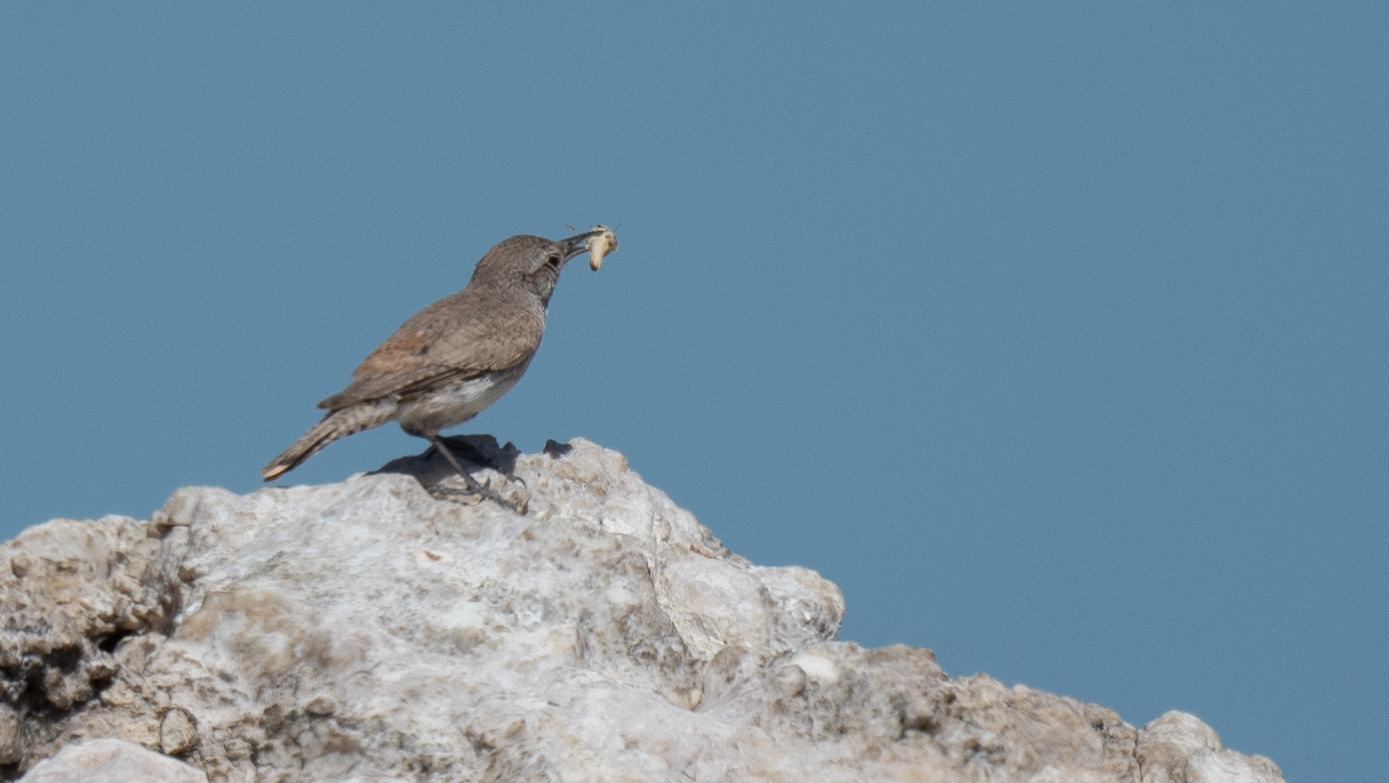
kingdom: Animalia
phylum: Chordata
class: Aves
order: Passeriformes
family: Troglodytidae
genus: Salpinctes
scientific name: Salpinctes obsoletus
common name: Rock wren
